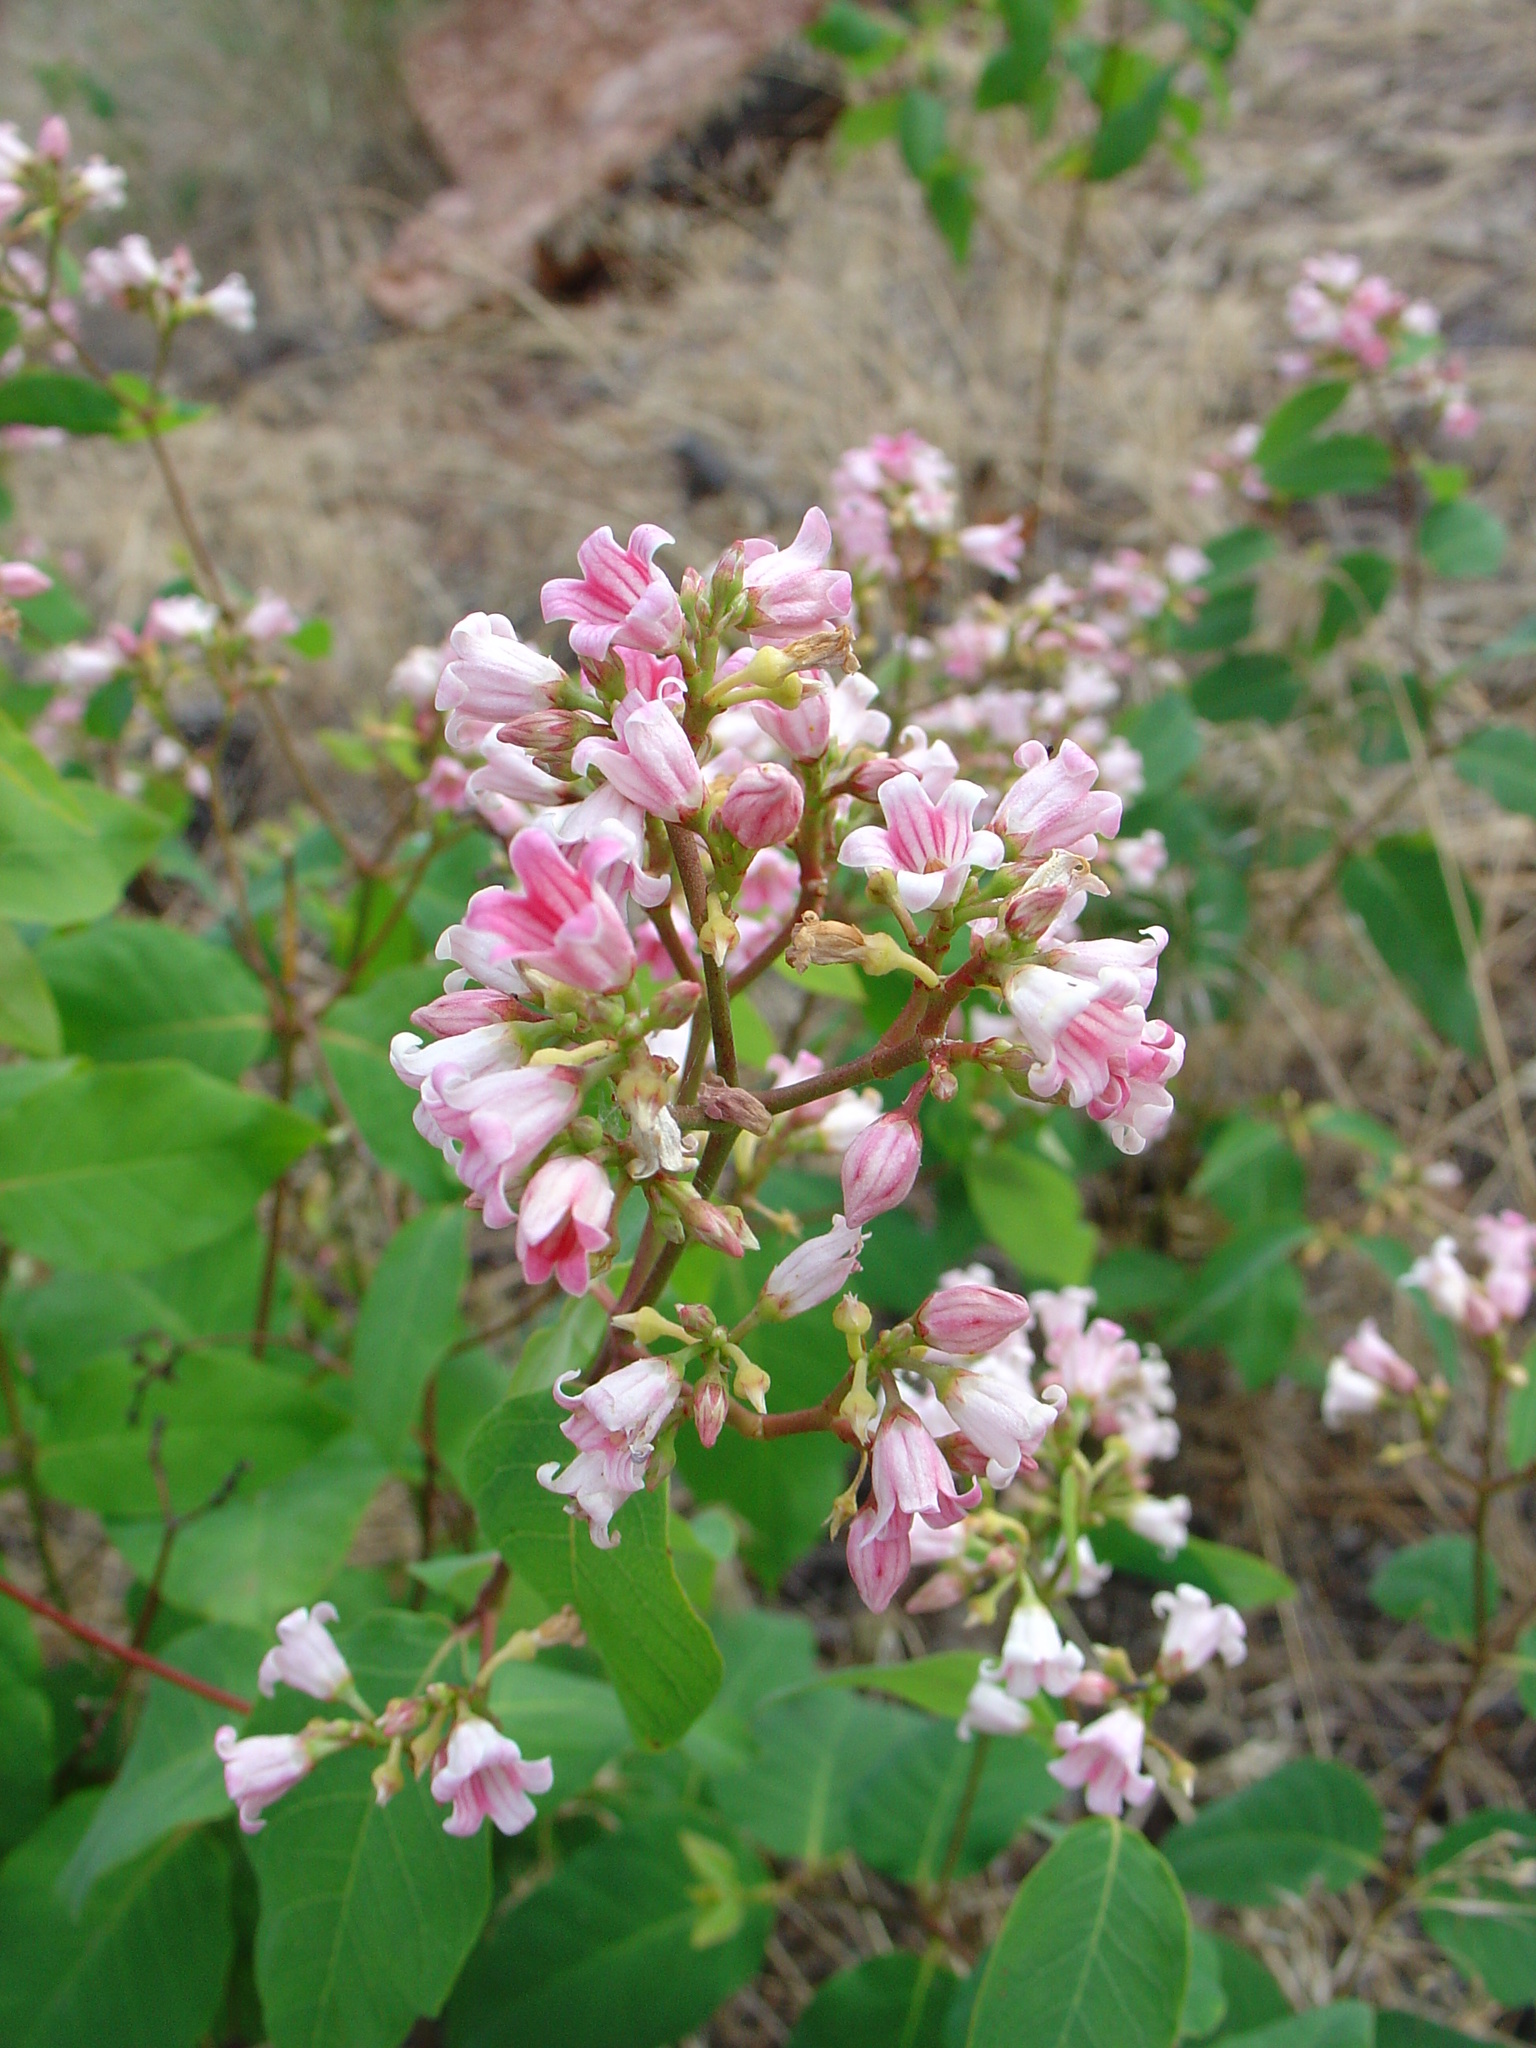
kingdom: Plantae
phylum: Tracheophyta
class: Magnoliopsida
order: Gentianales
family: Apocynaceae
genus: Apocynum
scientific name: Apocynum androsaemifolium
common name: Spreading dogbane
